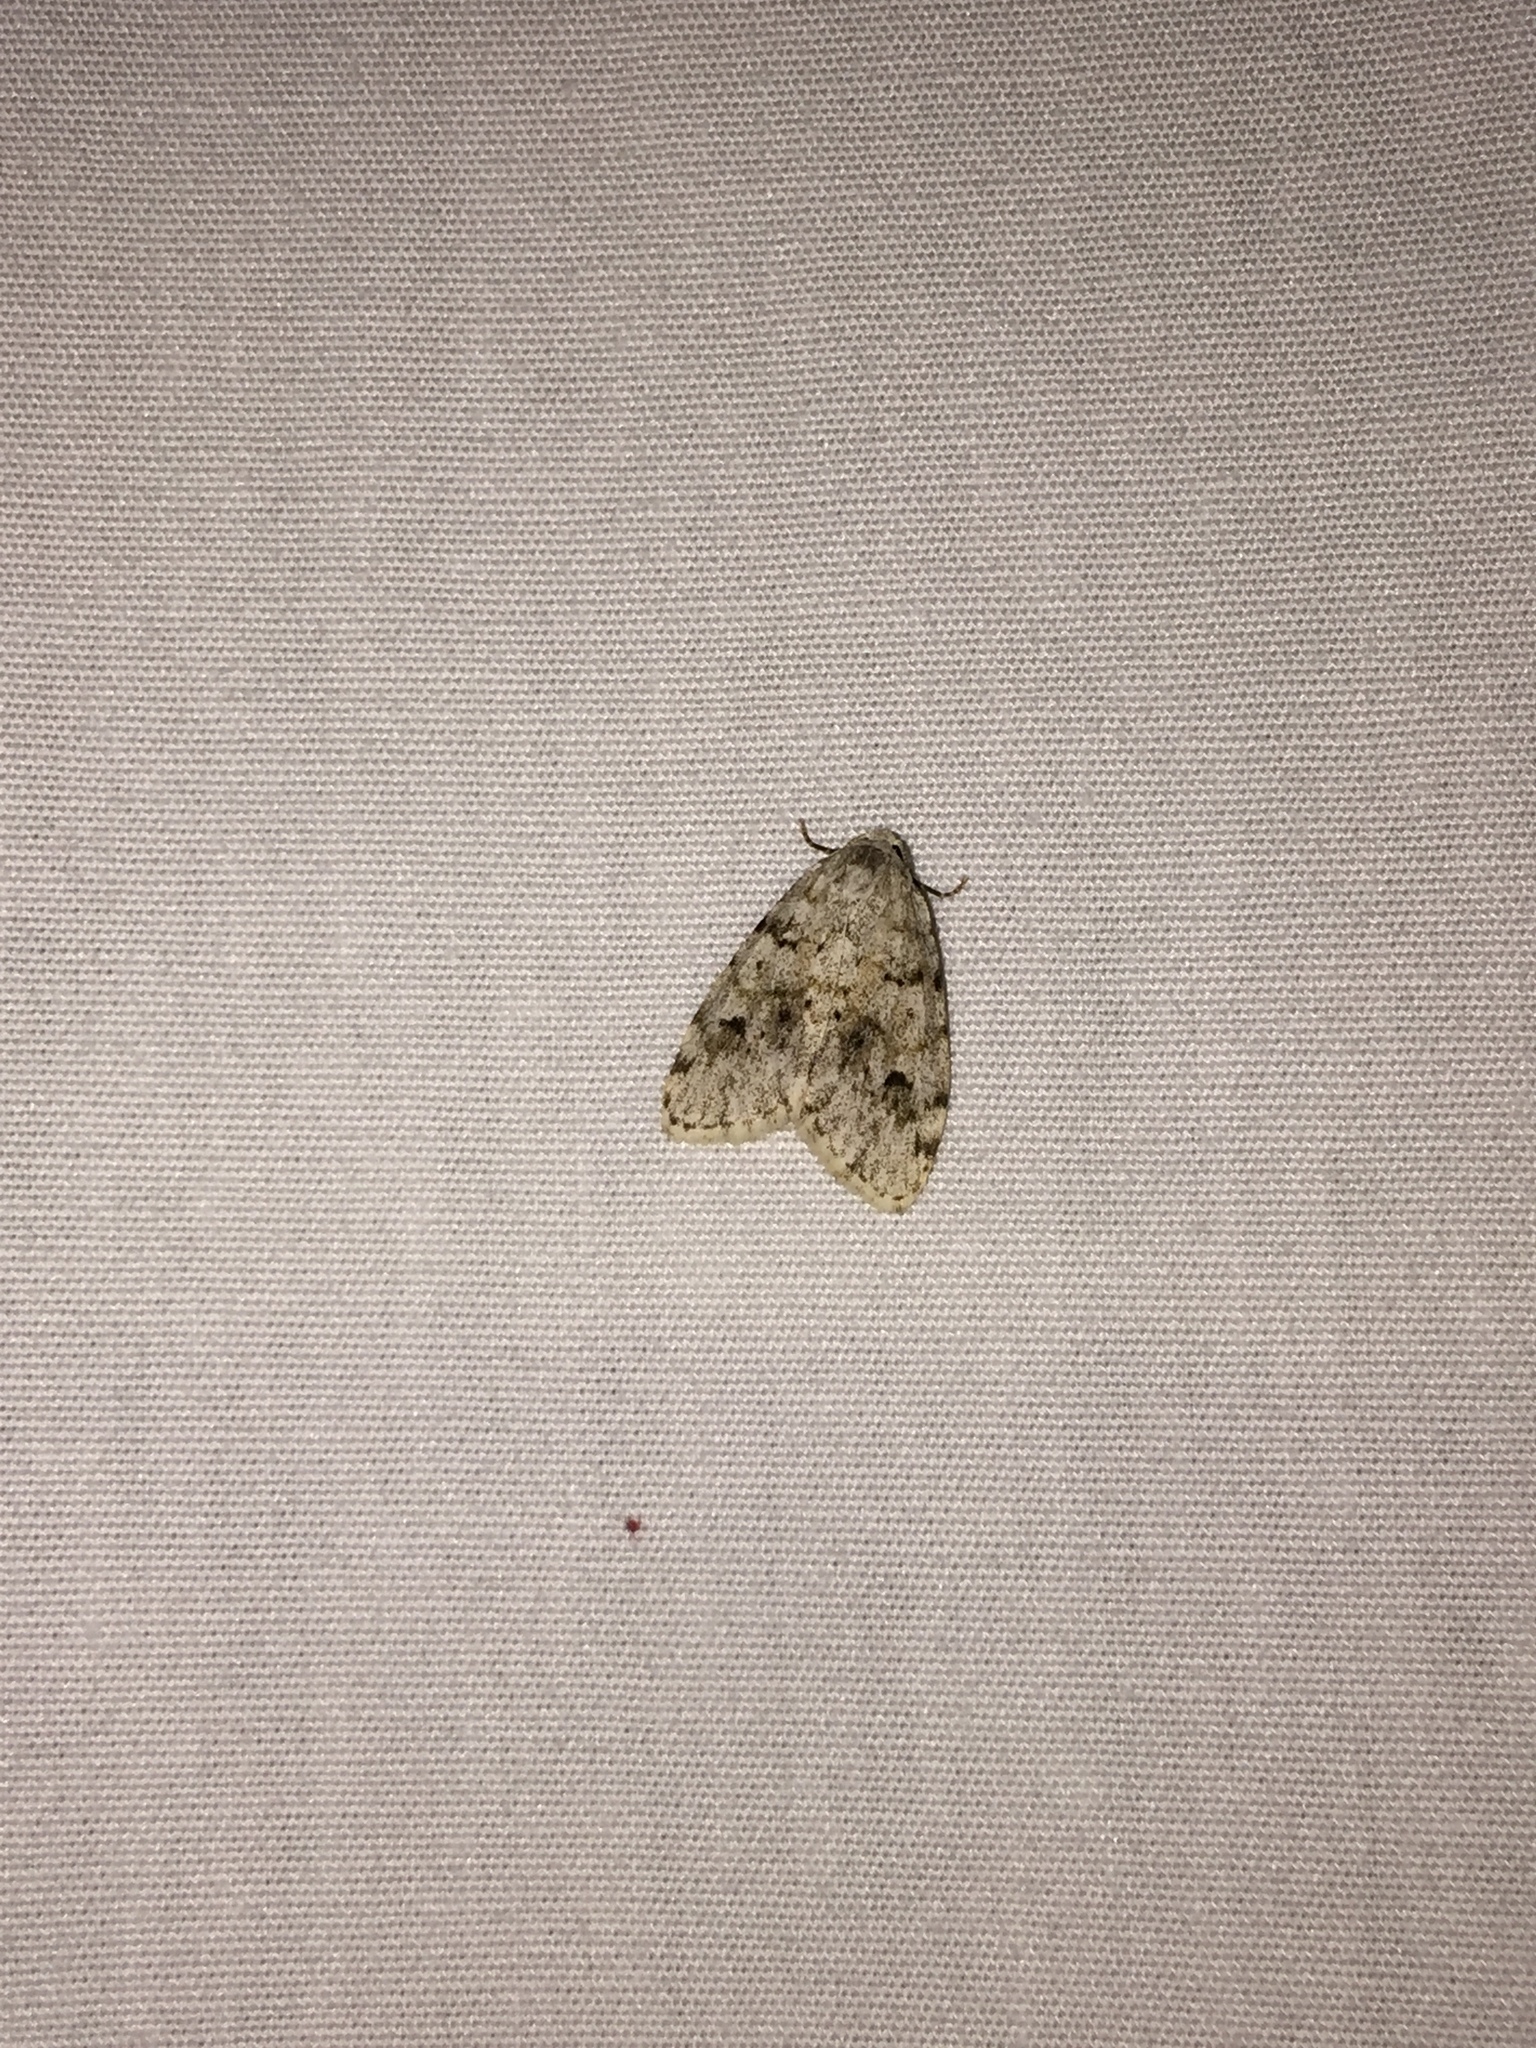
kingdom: Animalia
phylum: Arthropoda
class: Insecta
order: Lepidoptera
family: Erebidae
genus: Clemensia
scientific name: Clemensia albata
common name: Little white lichen moth
